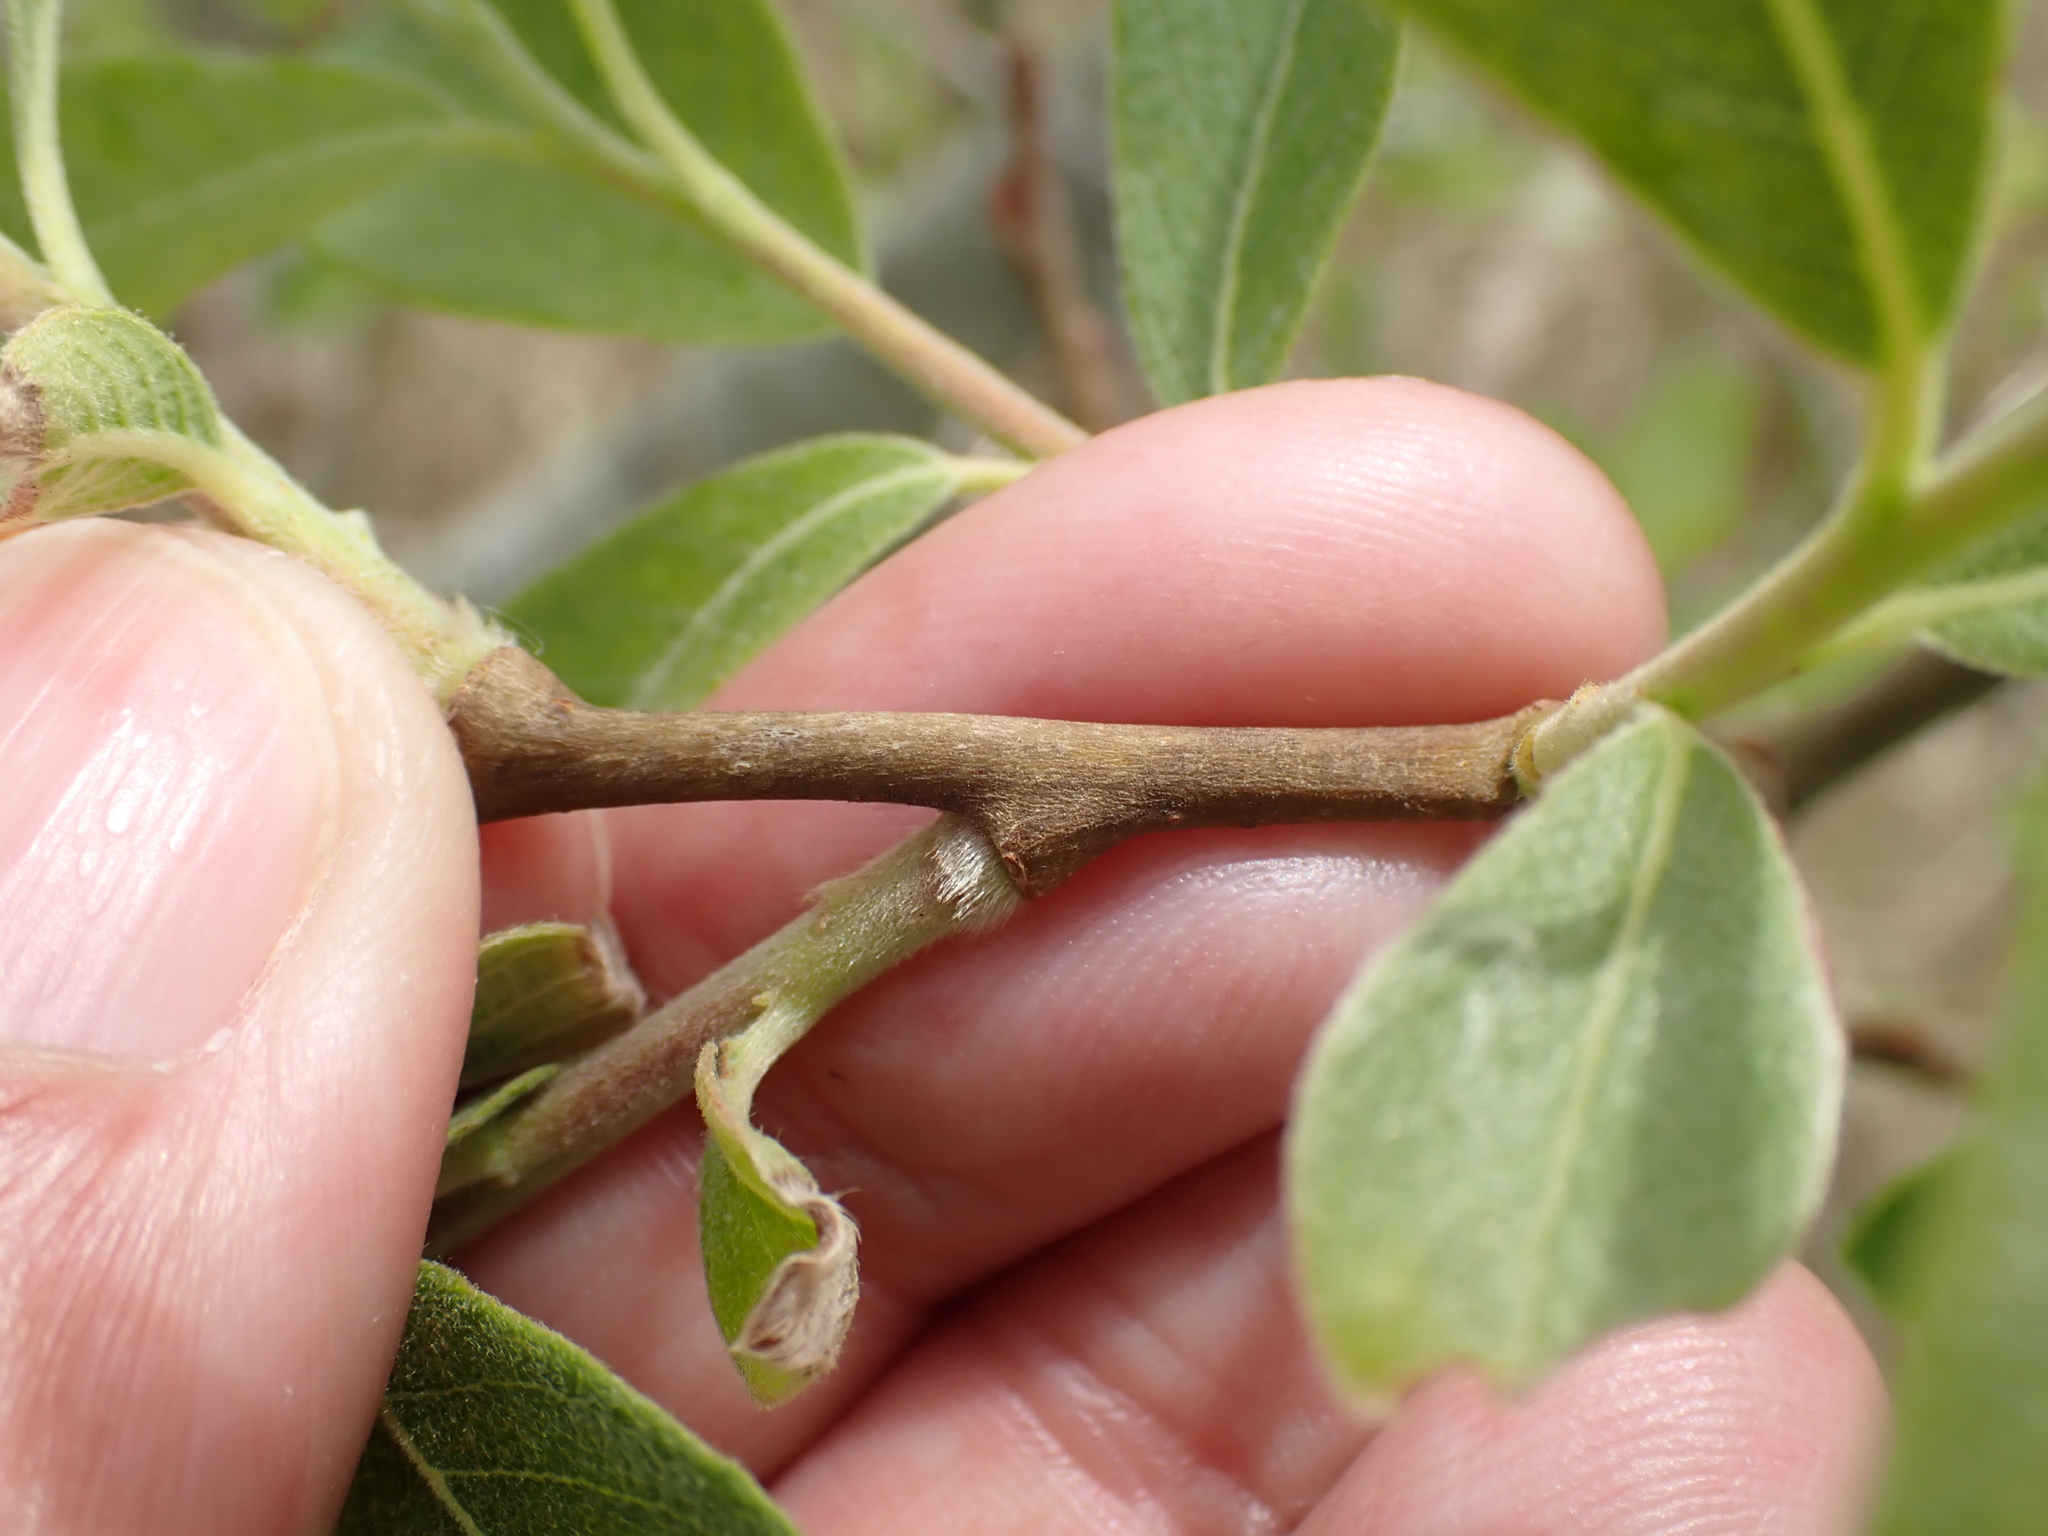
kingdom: Plantae
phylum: Tracheophyta
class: Magnoliopsida
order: Malpighiales
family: Salicaceae
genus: Salix
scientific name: Salix cinerea
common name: Common sallow
